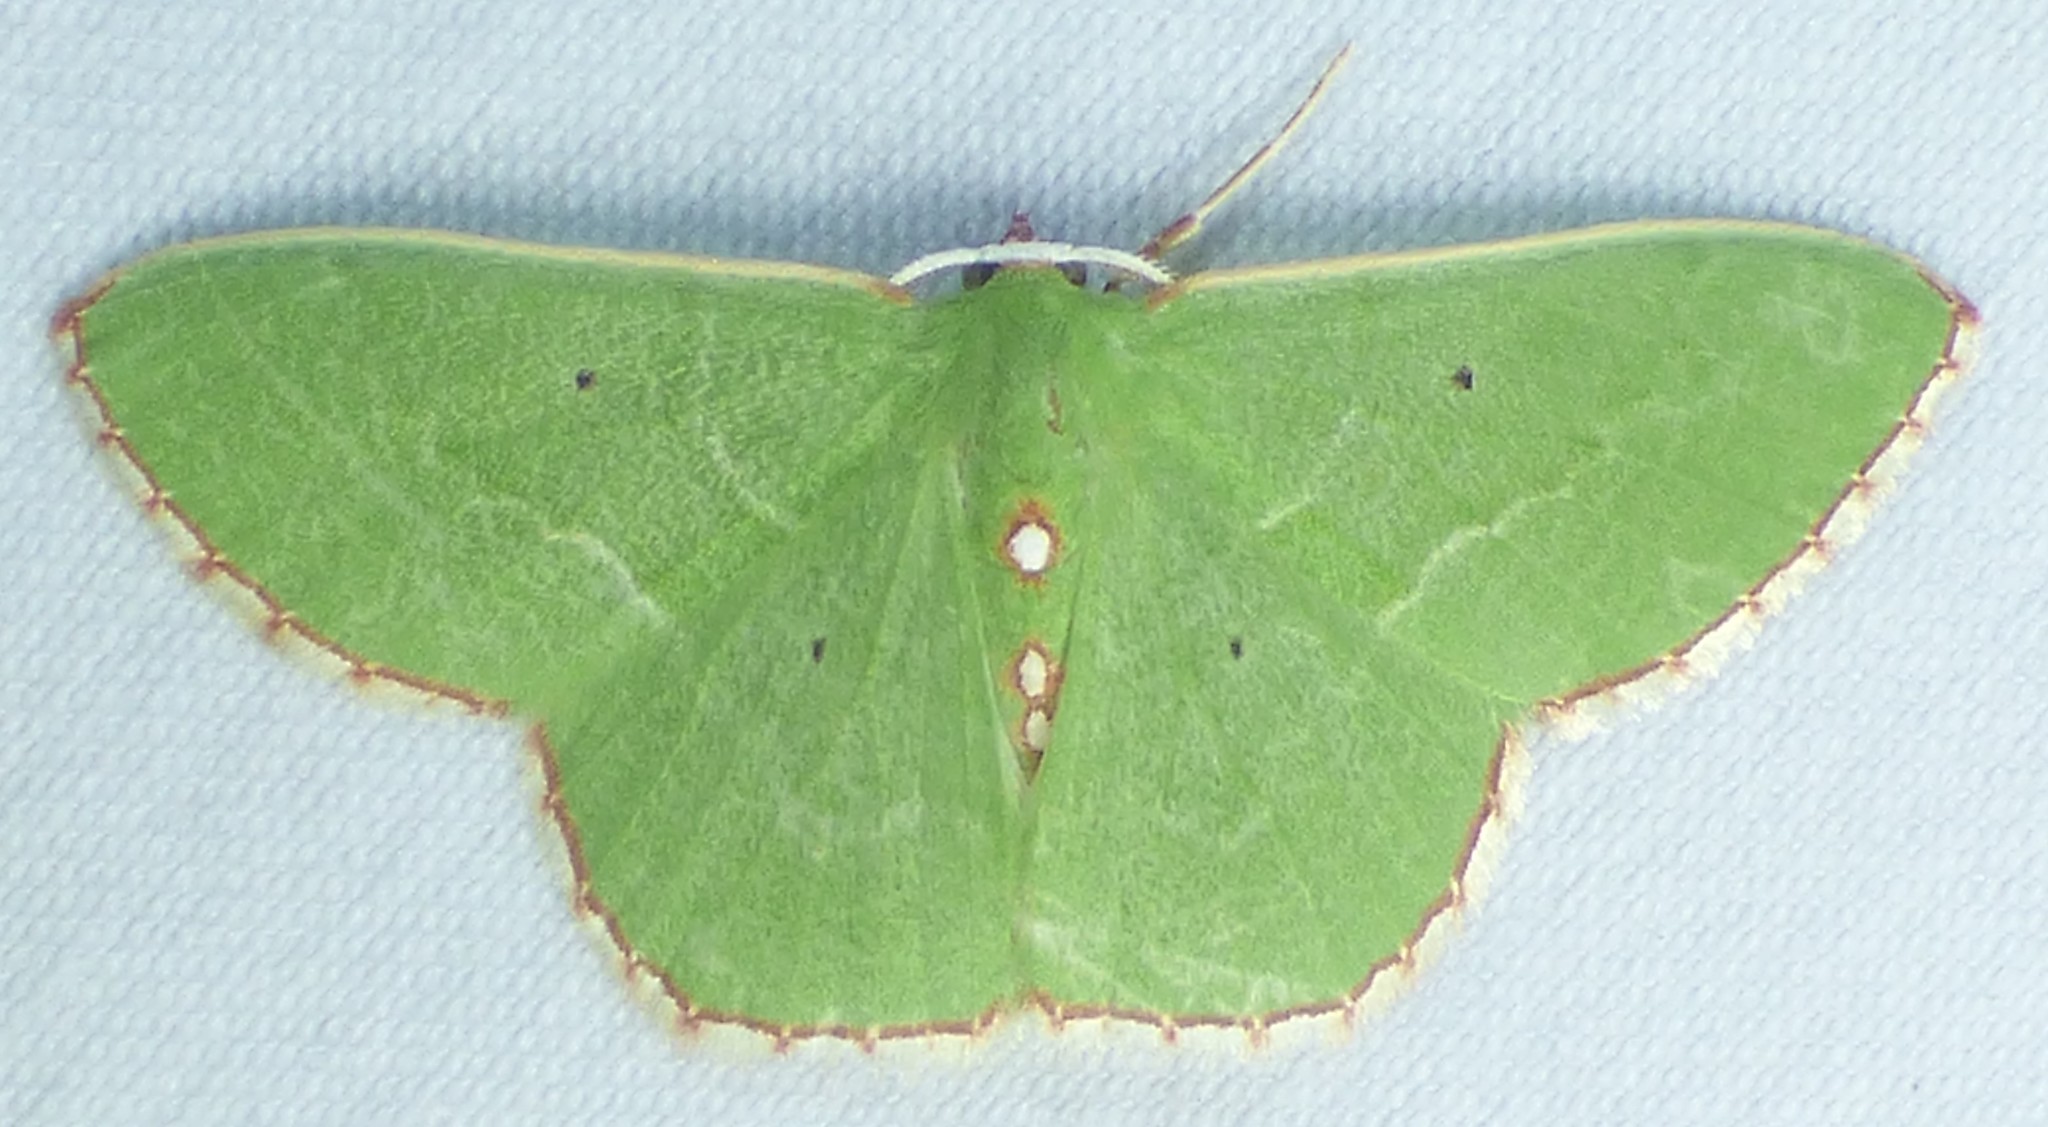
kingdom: Animalia
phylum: Arthropoda
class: Insecta
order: Lepidoptera
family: Geometridae
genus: Nemoria
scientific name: Nemoria lixaria
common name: Red-bordered emerald
